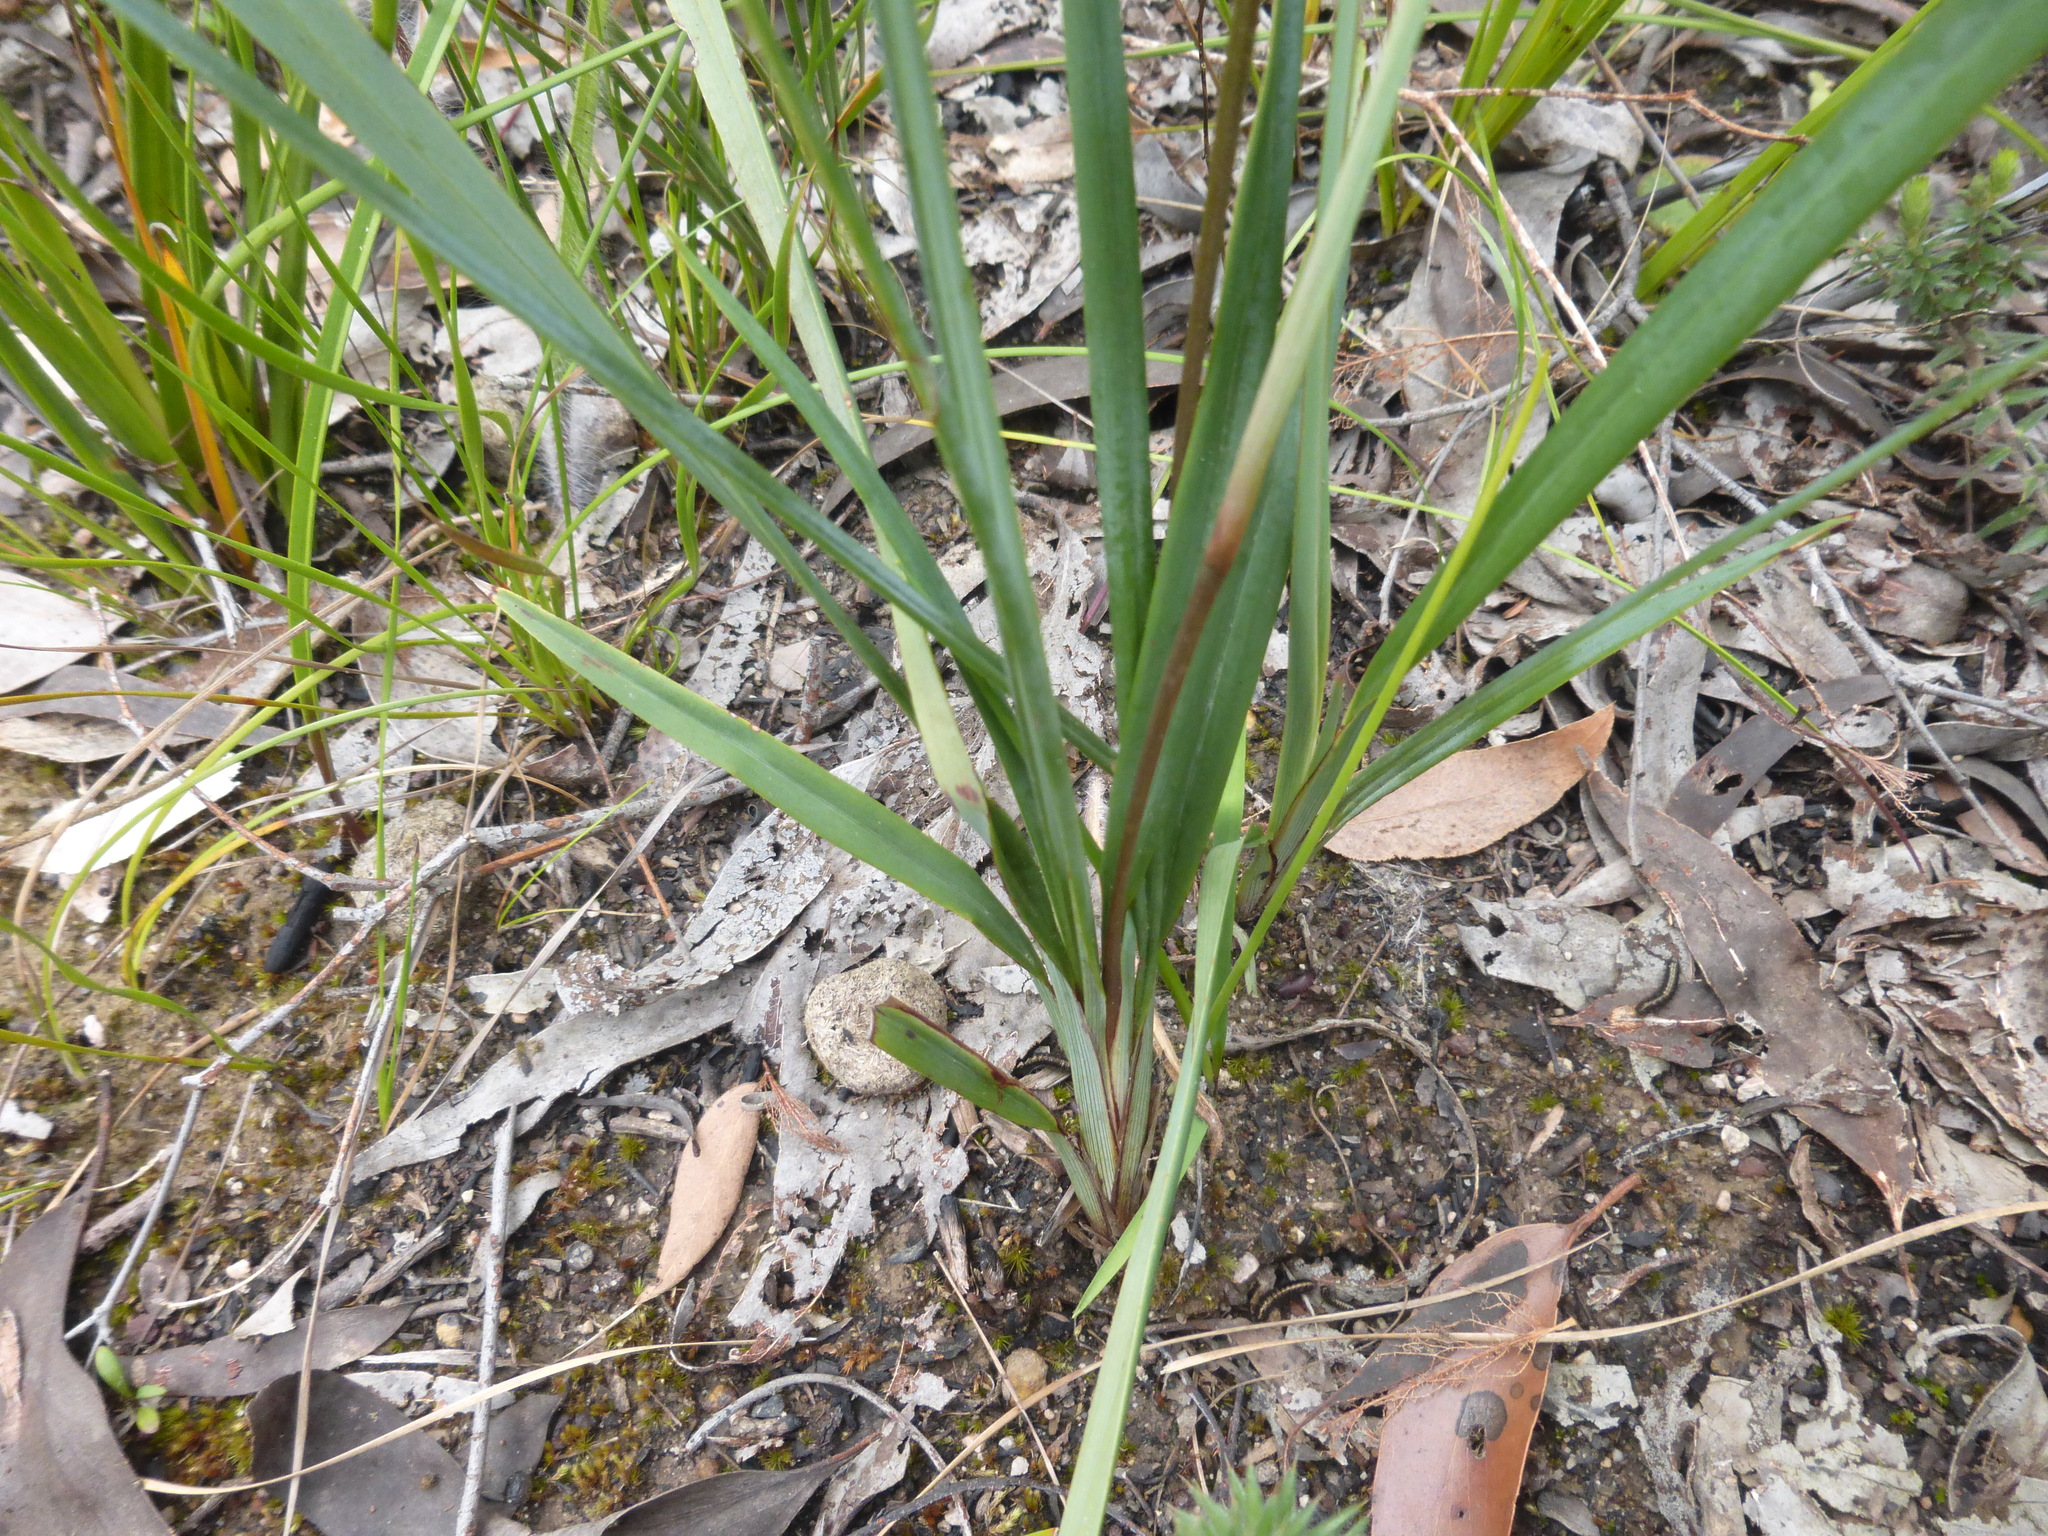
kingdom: Plantae
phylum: Tracheophyta
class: Liliopsida
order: Asparagales
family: Asphodelaceae
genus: Dianella
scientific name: Dianella revoluta
